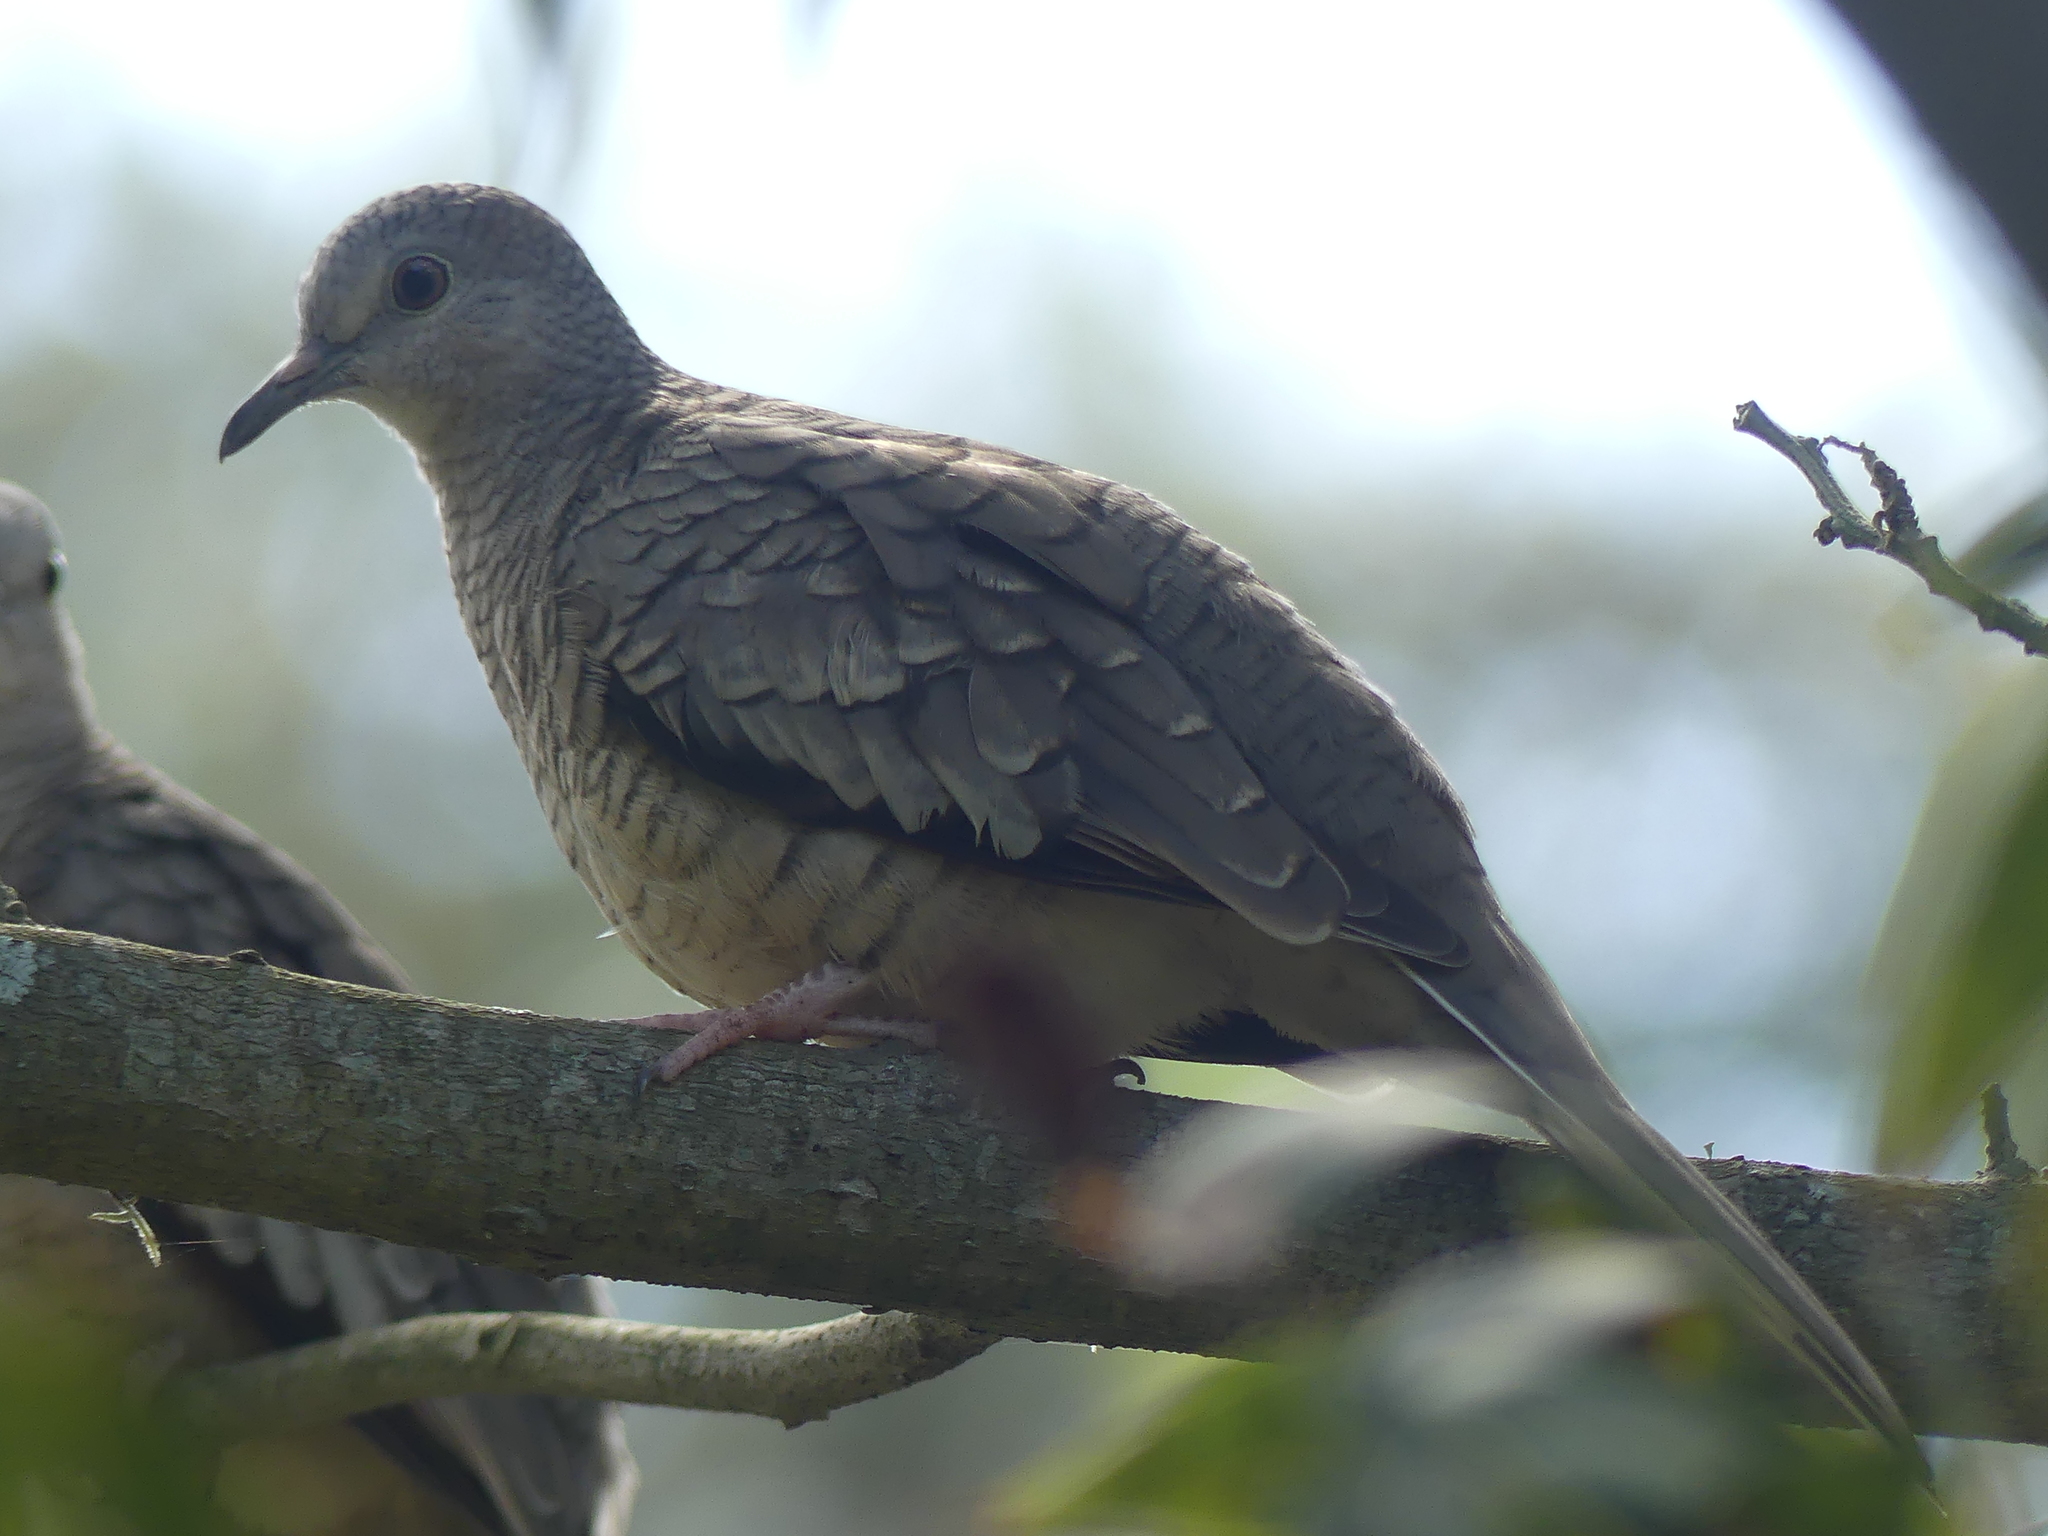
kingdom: Animalia
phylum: Chordata
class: Aves
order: Columbiformes
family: Columbidae
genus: Columbina
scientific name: Columbina inca
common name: Inca dove
